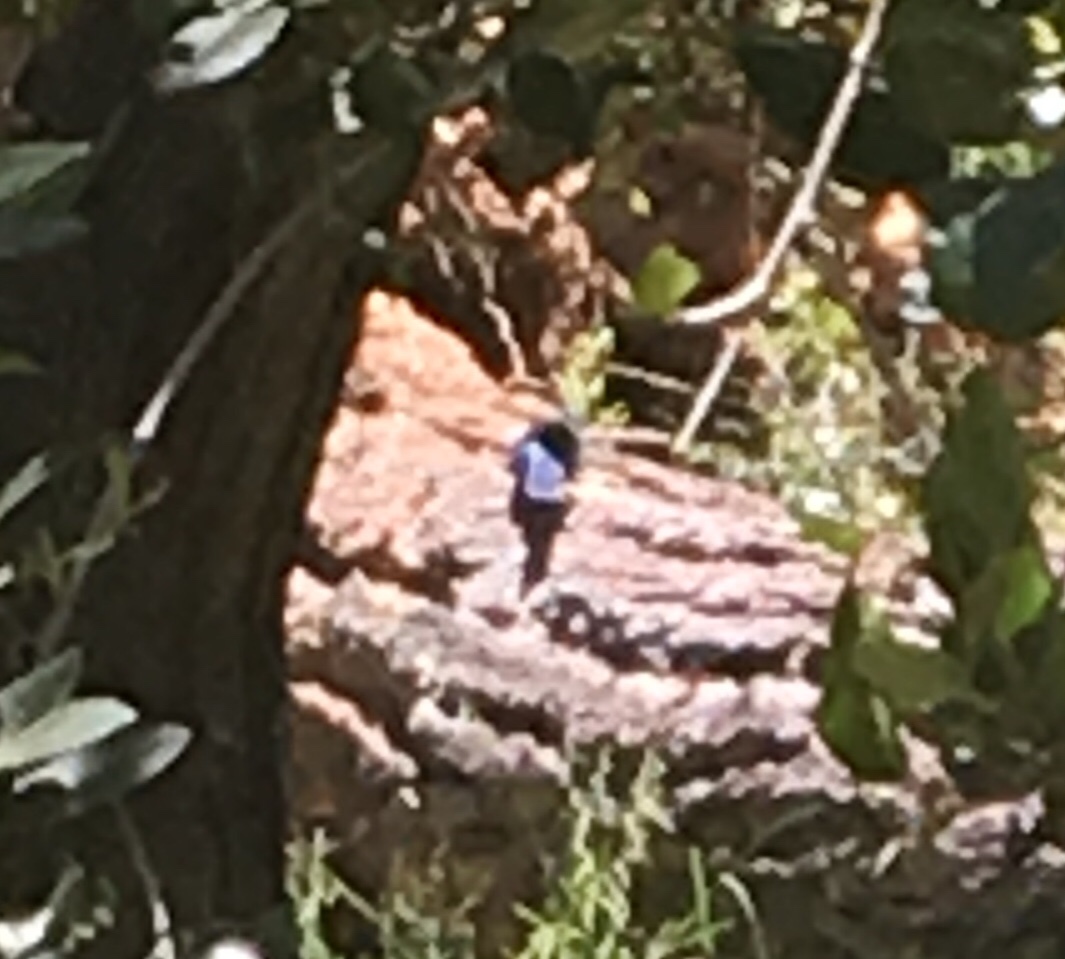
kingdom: Animalia
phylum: Chordata
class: Aves
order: Passeriformes
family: Corvidae
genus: Cyanocitta
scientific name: Cyanocitta stelleri
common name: Steller's jay
